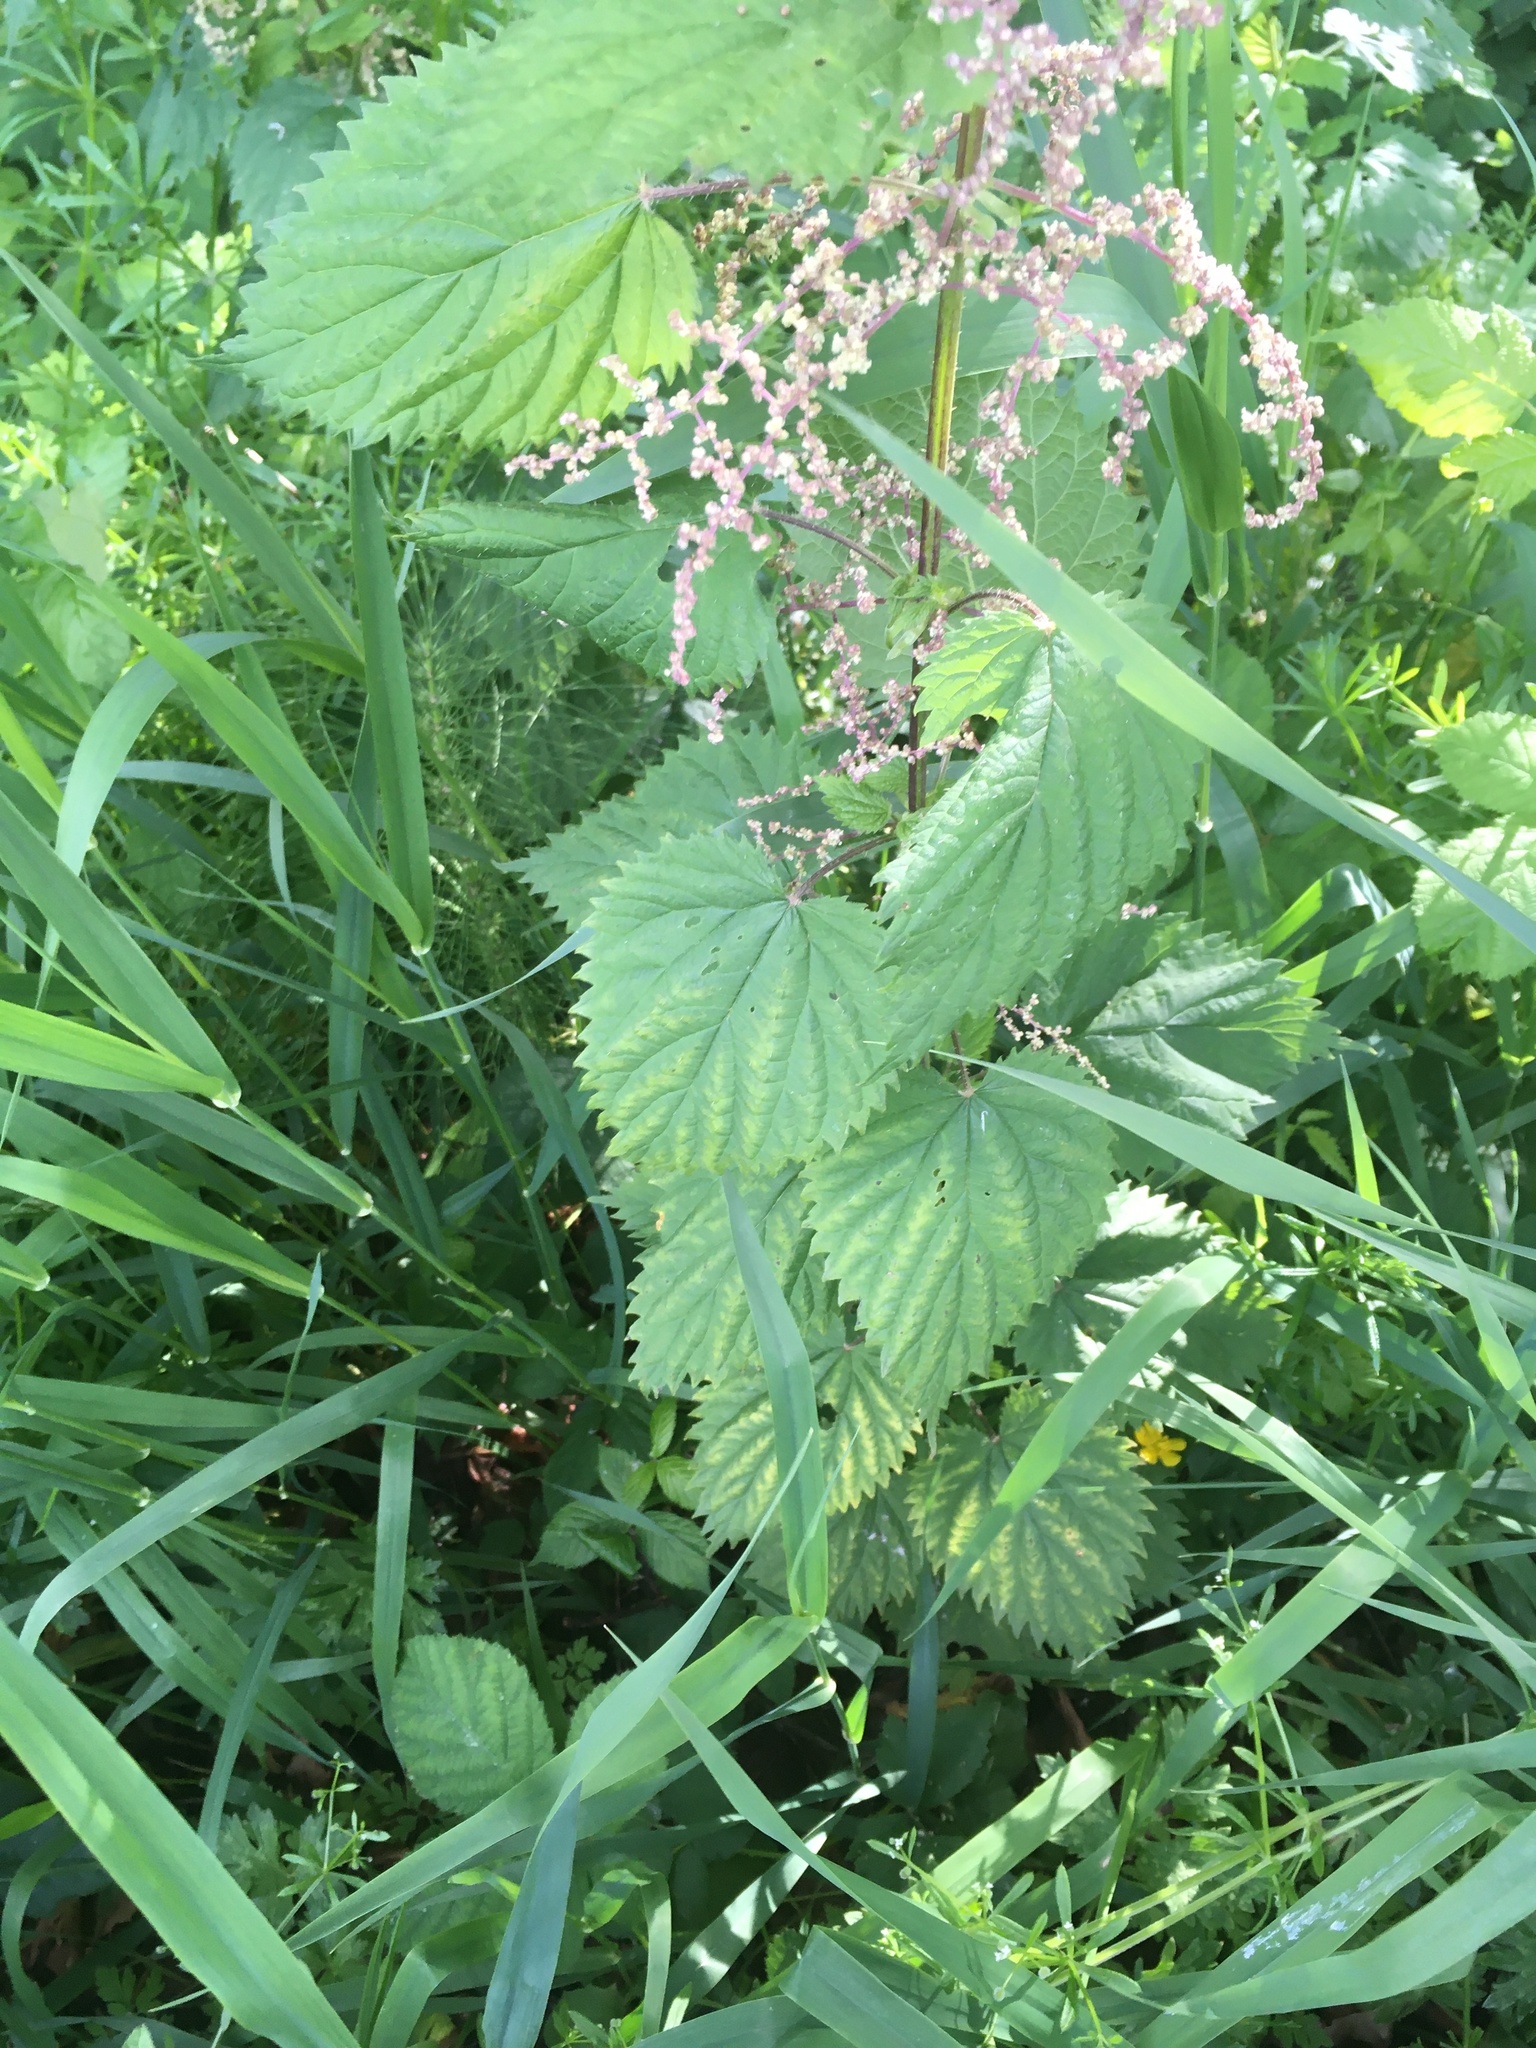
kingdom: Plantae
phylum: Tracheophyta
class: Magnoliopsida
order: Rosales
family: Urticaceae
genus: Urtica
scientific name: Urtica gracilis
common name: Slender stinging nettle
